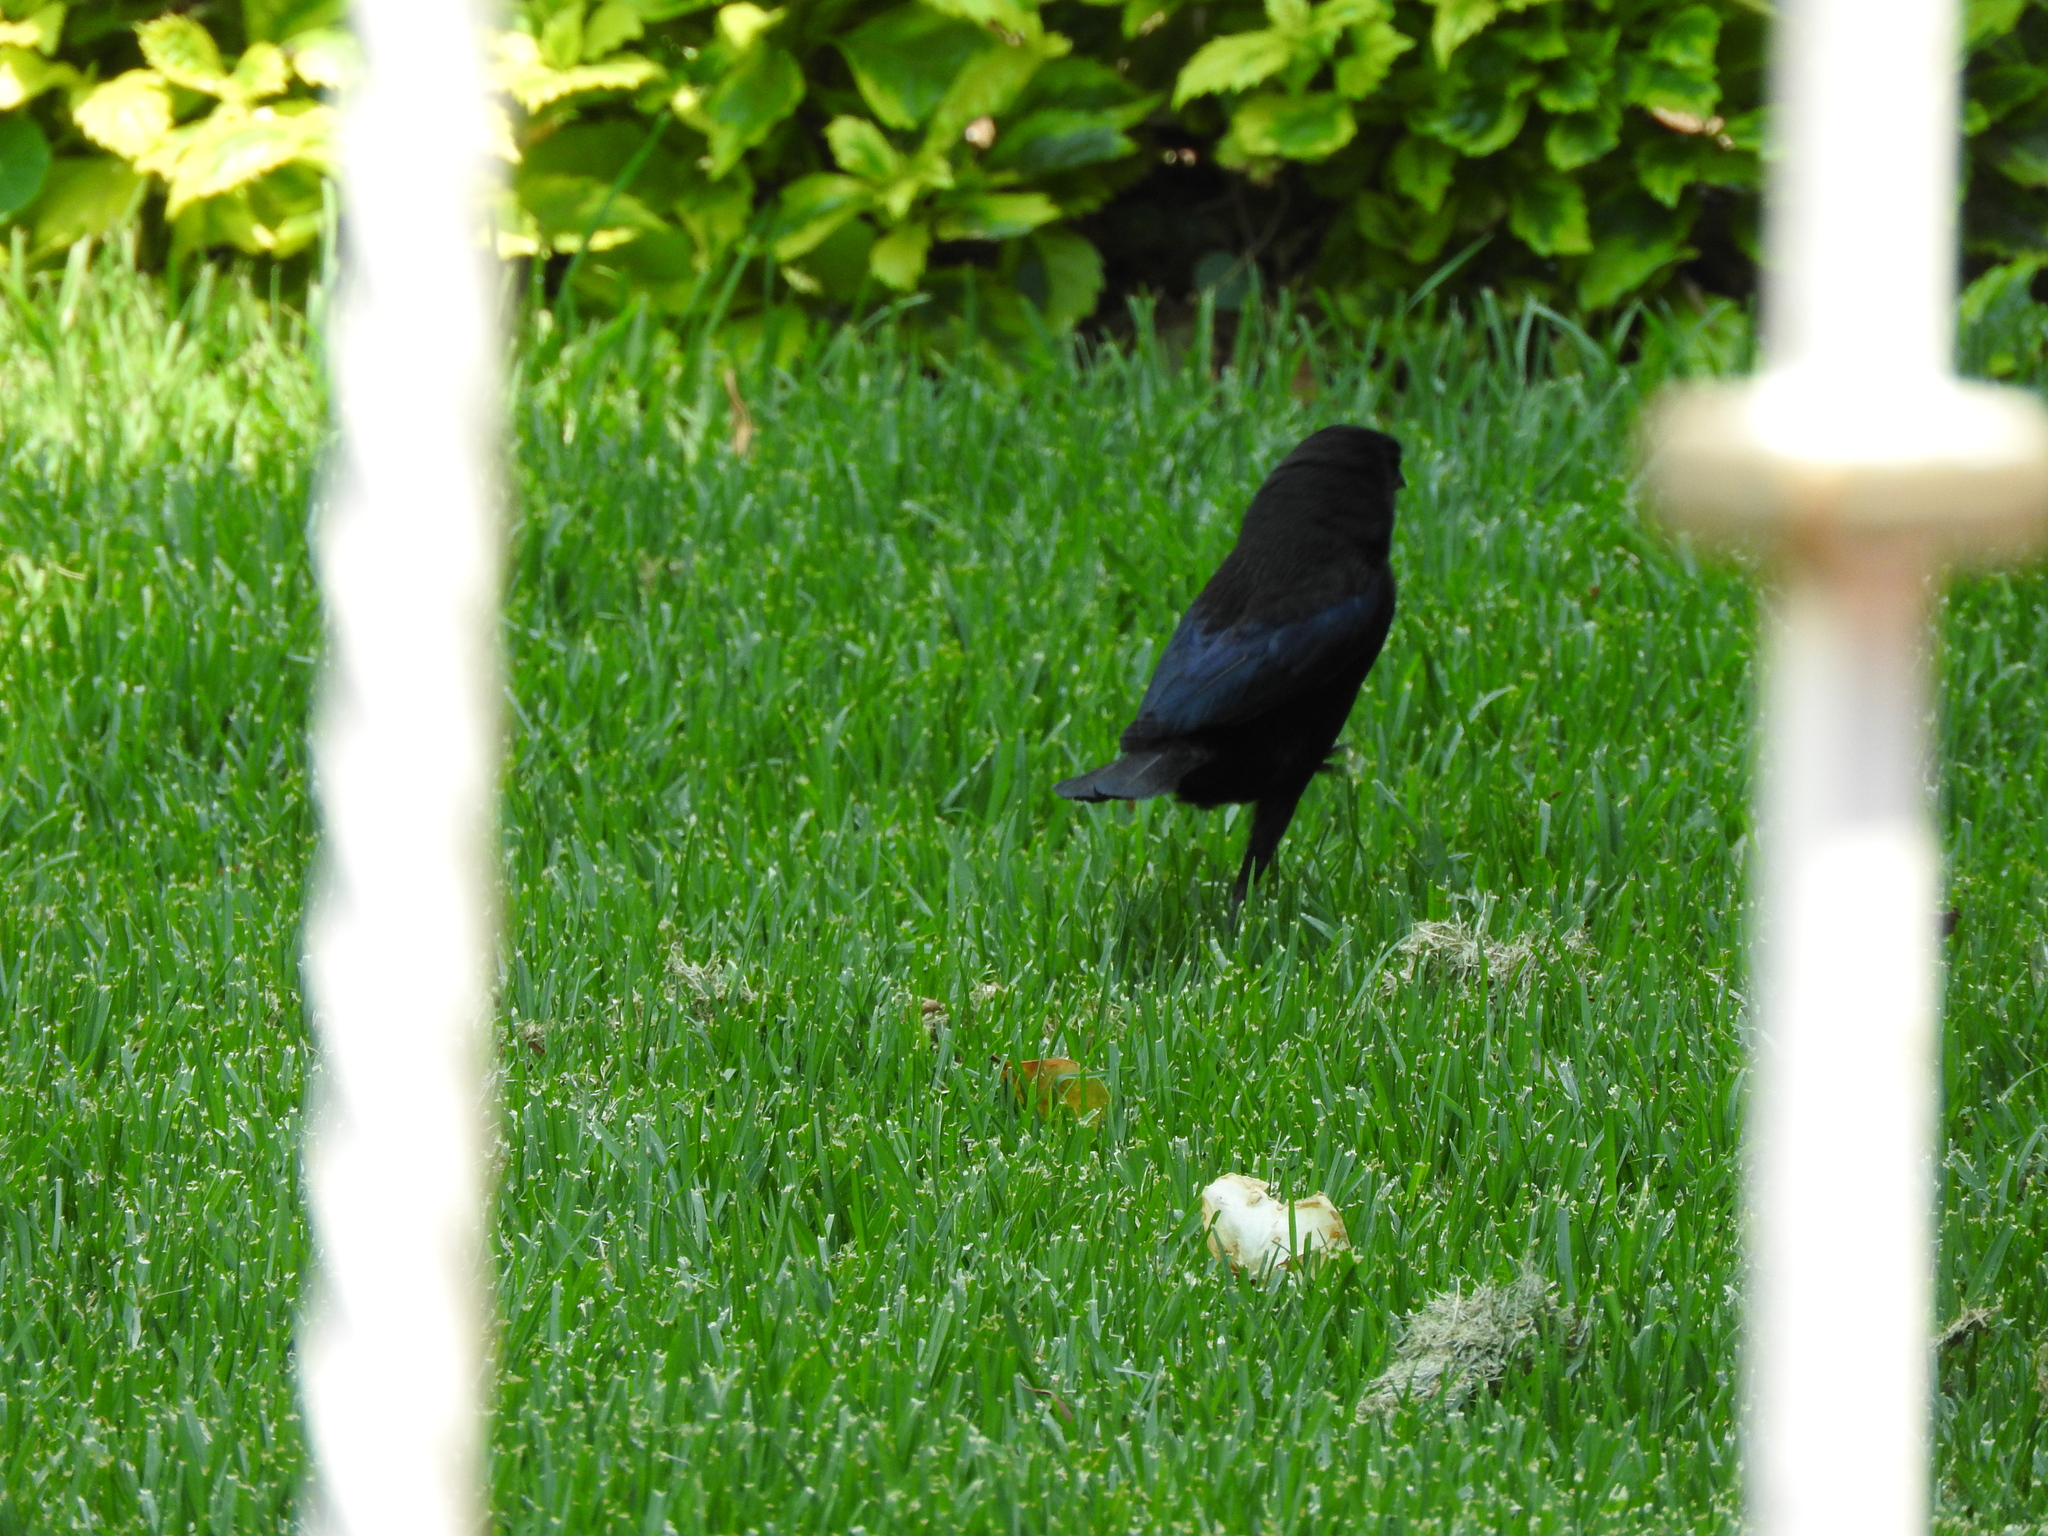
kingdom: Animalia
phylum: Chordata
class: Aves
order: Passeriformes
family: Icteridae
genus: Molothrus
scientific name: Molothrus aeneus
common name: Bronzed cowbird
